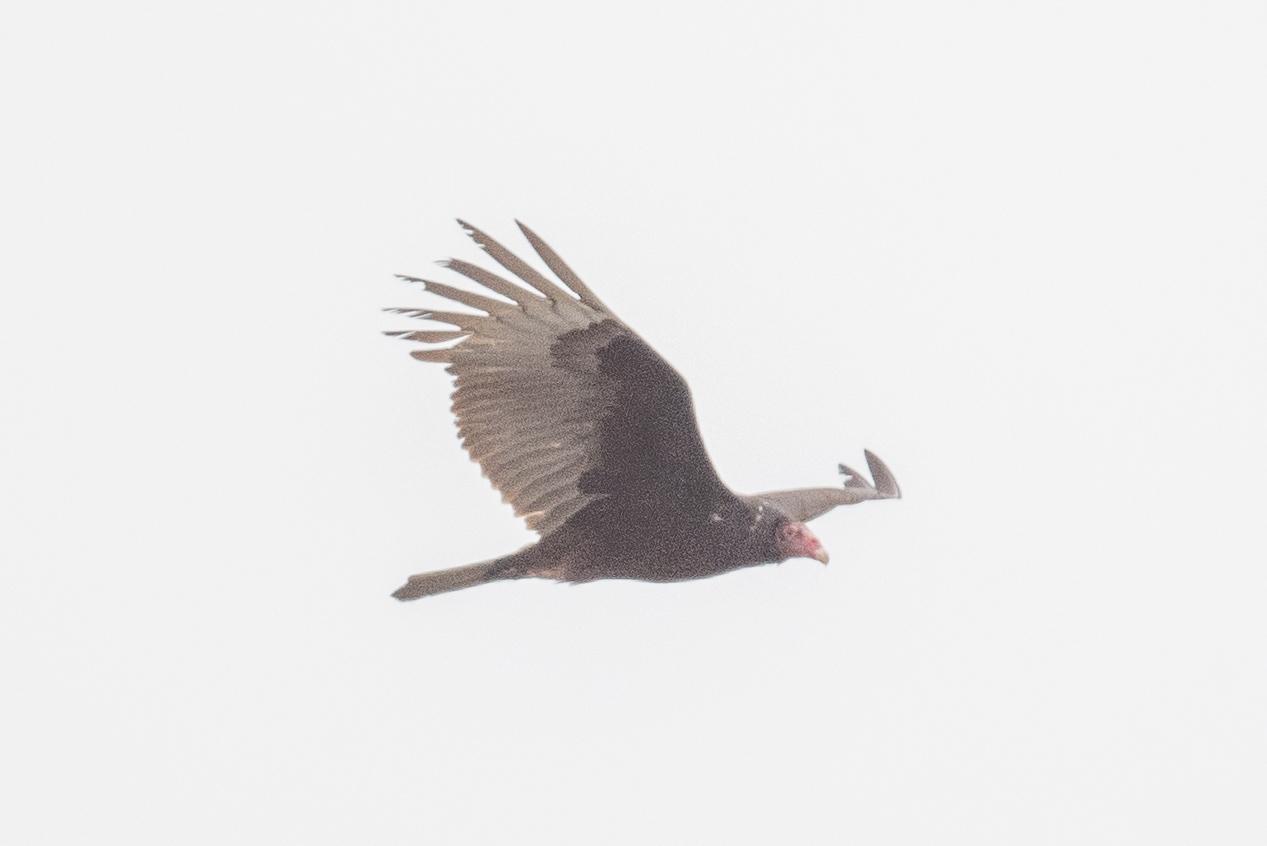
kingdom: Animalia
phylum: Chordata
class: Aves
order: Accipitriformes
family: Cathartidae
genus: Cathartes
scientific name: Cathartes aura
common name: Turkey vulture
